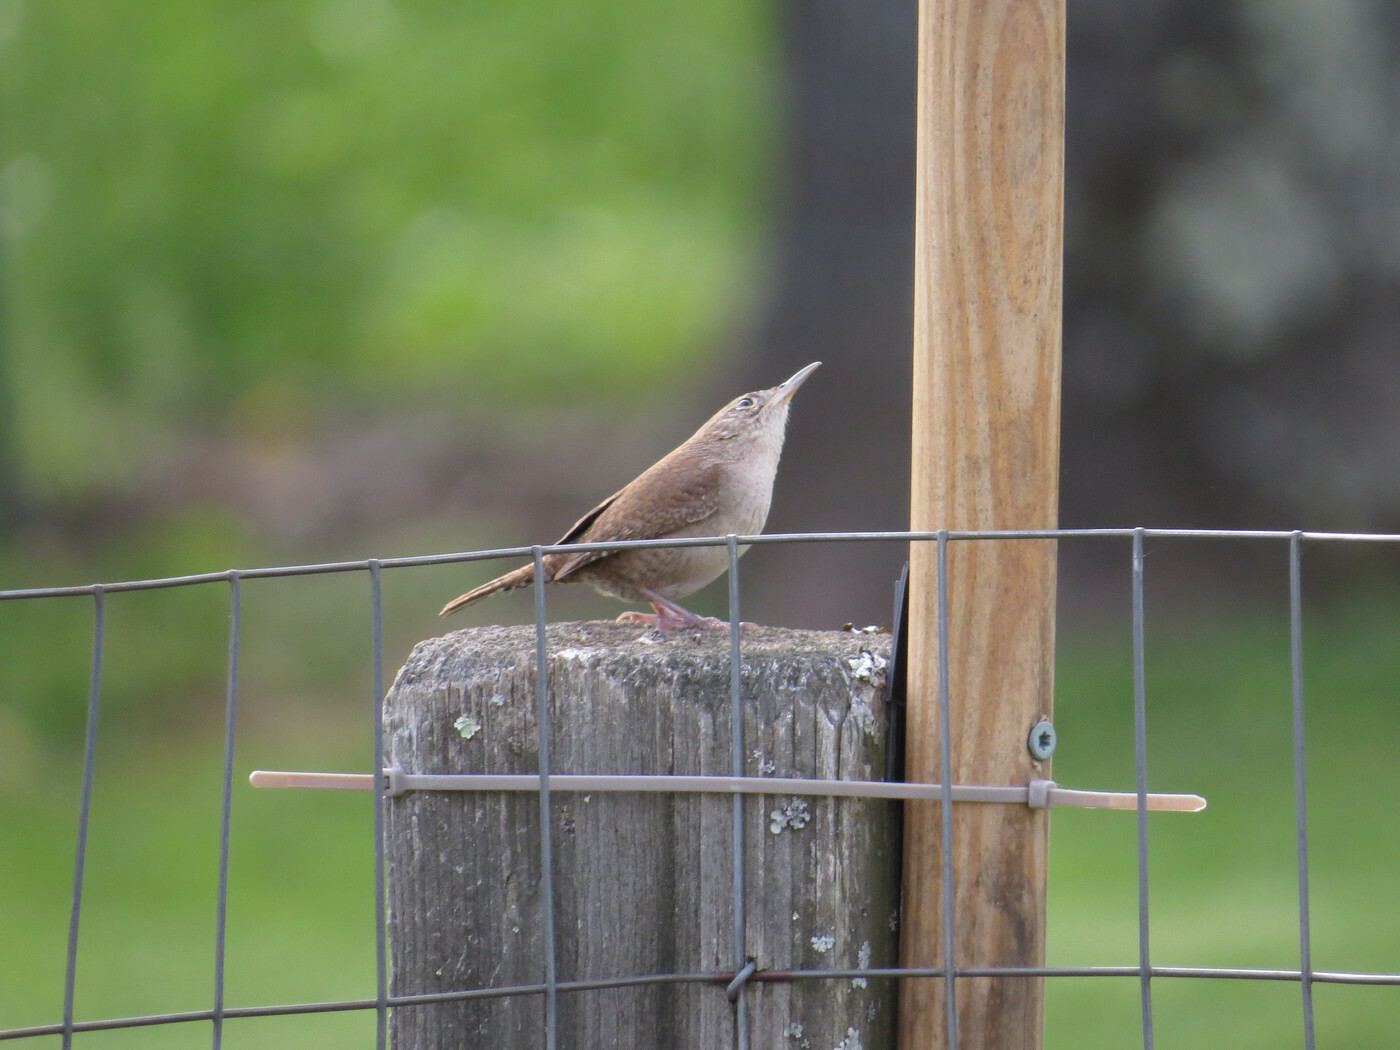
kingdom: Animalia
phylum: Chordata
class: Aves
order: Passeriformes
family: Troglodytidae
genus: Troglodytes
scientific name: Troglodytes aedon
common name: House wren
